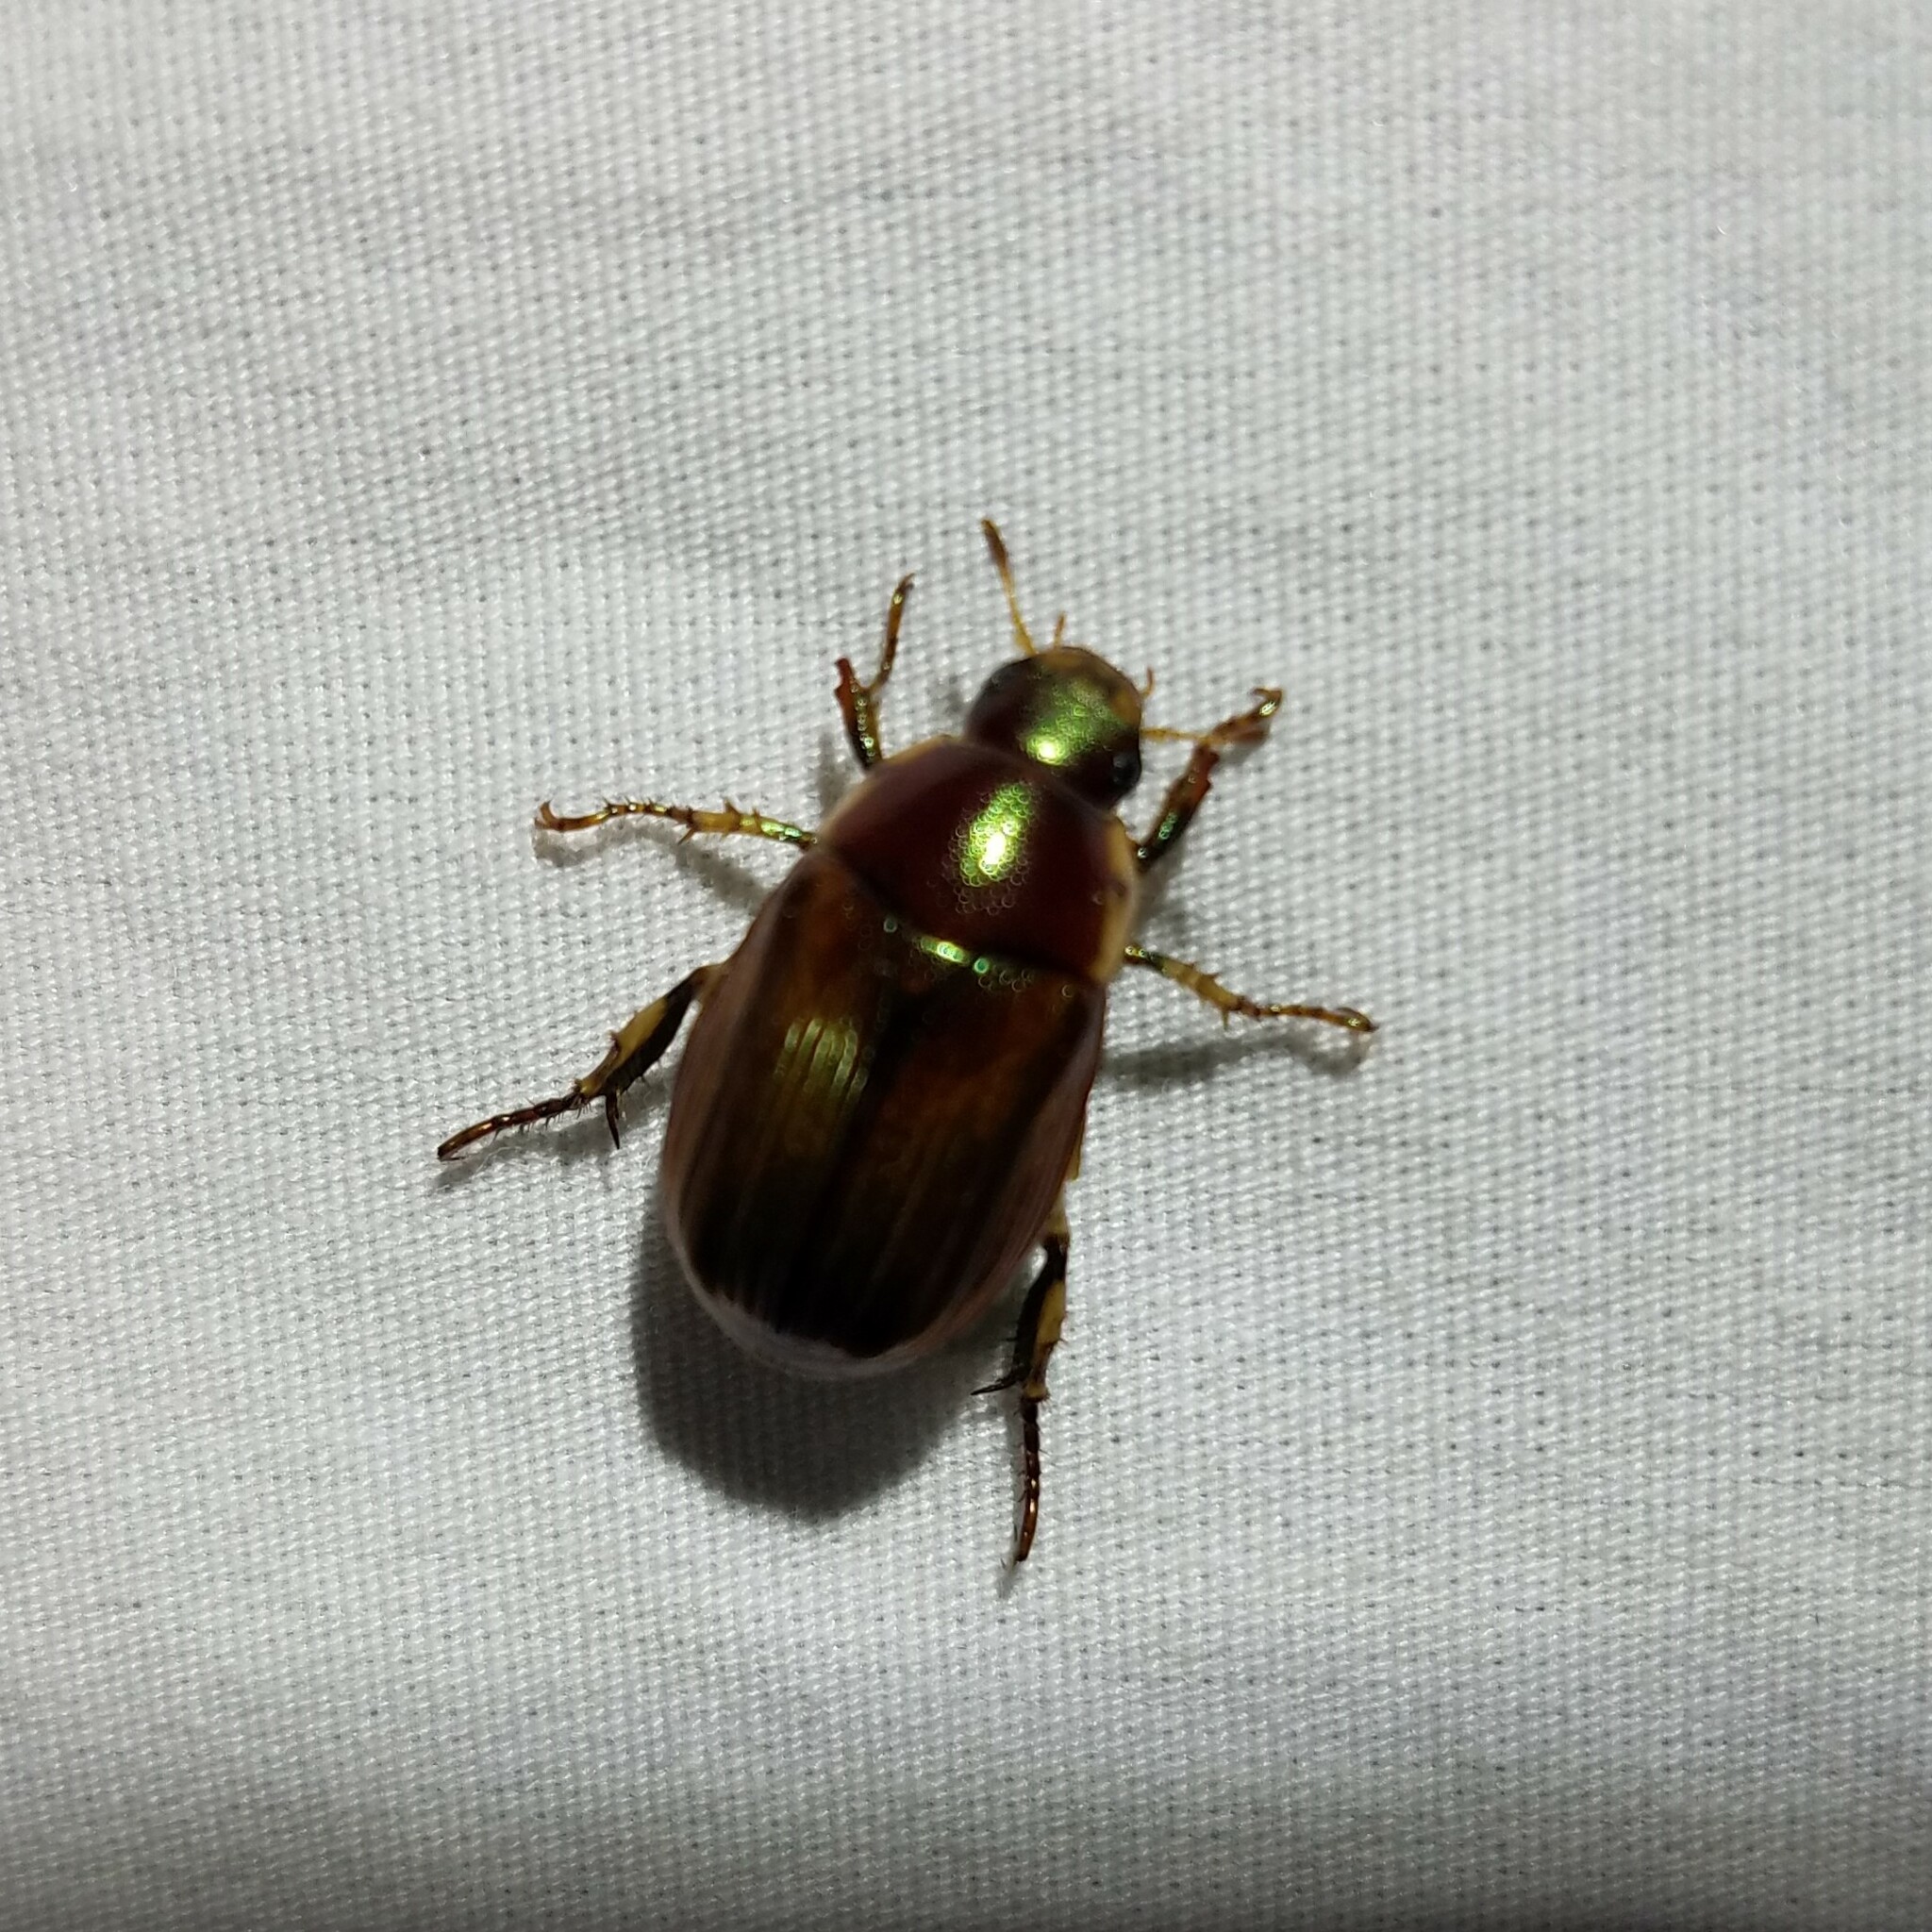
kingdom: Animalia
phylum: Arthropoda
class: Insecta
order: Coleoptera
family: Scarabaeidae
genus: Callistethus
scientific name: Callistethus marginatus
